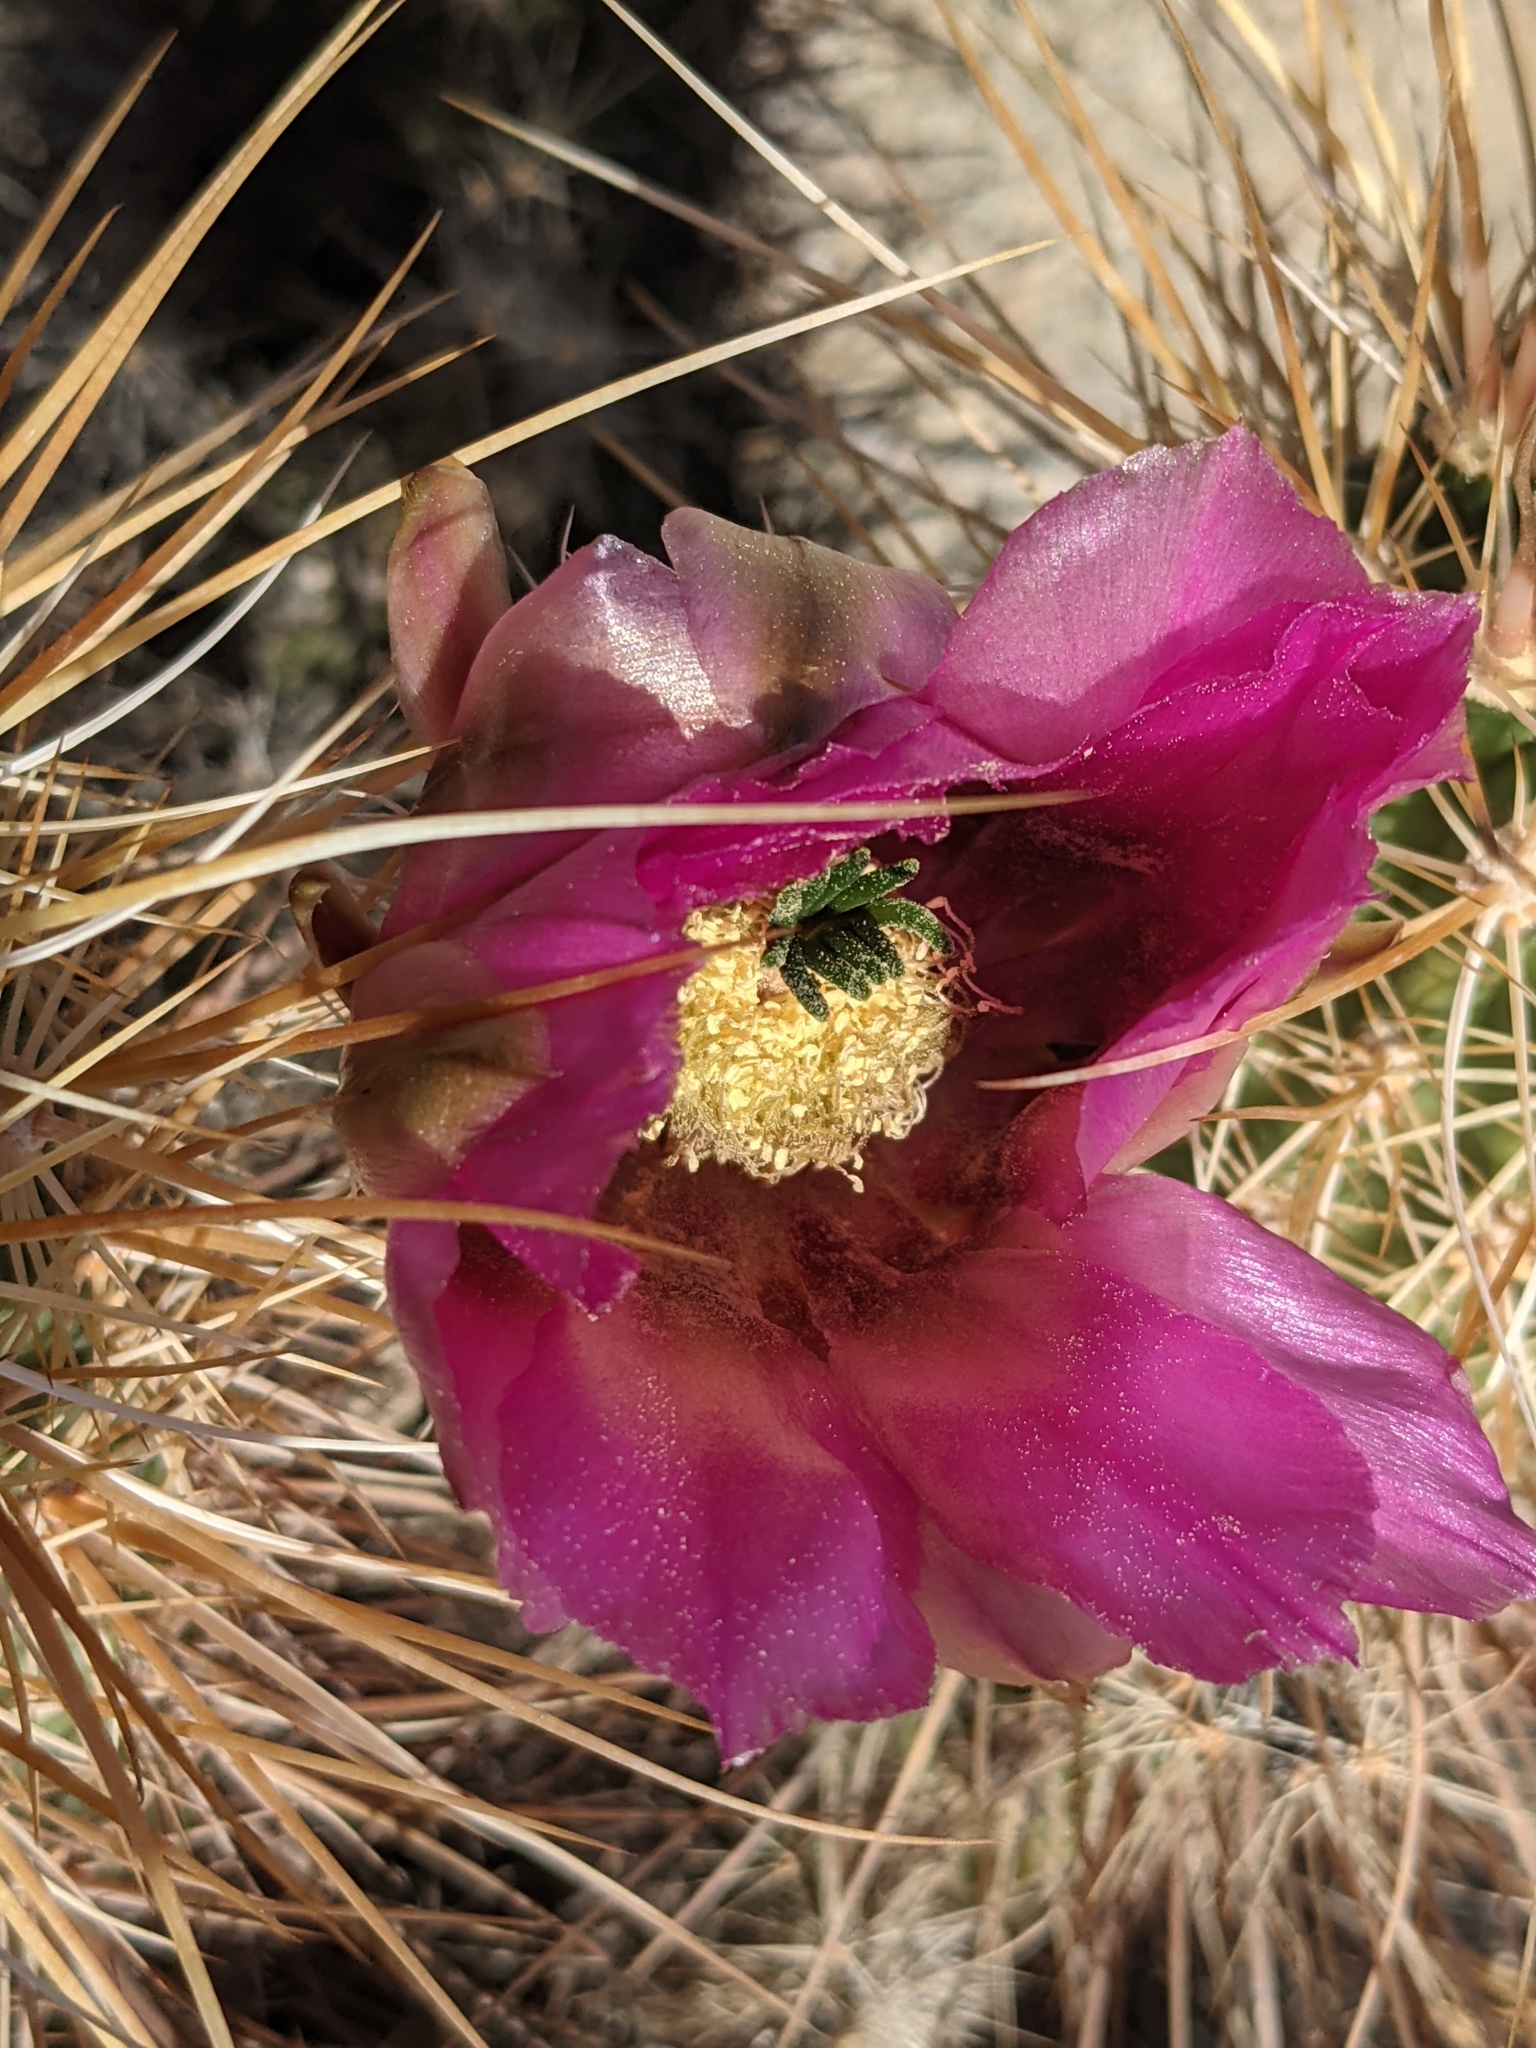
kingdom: Plantae
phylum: Tracheophyta
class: Magnoliopsida
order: Caryophyllales
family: Cactaceae
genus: Echinocereus
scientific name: Echinocereus engelmannii
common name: Engelmann's hedgehog cactus
